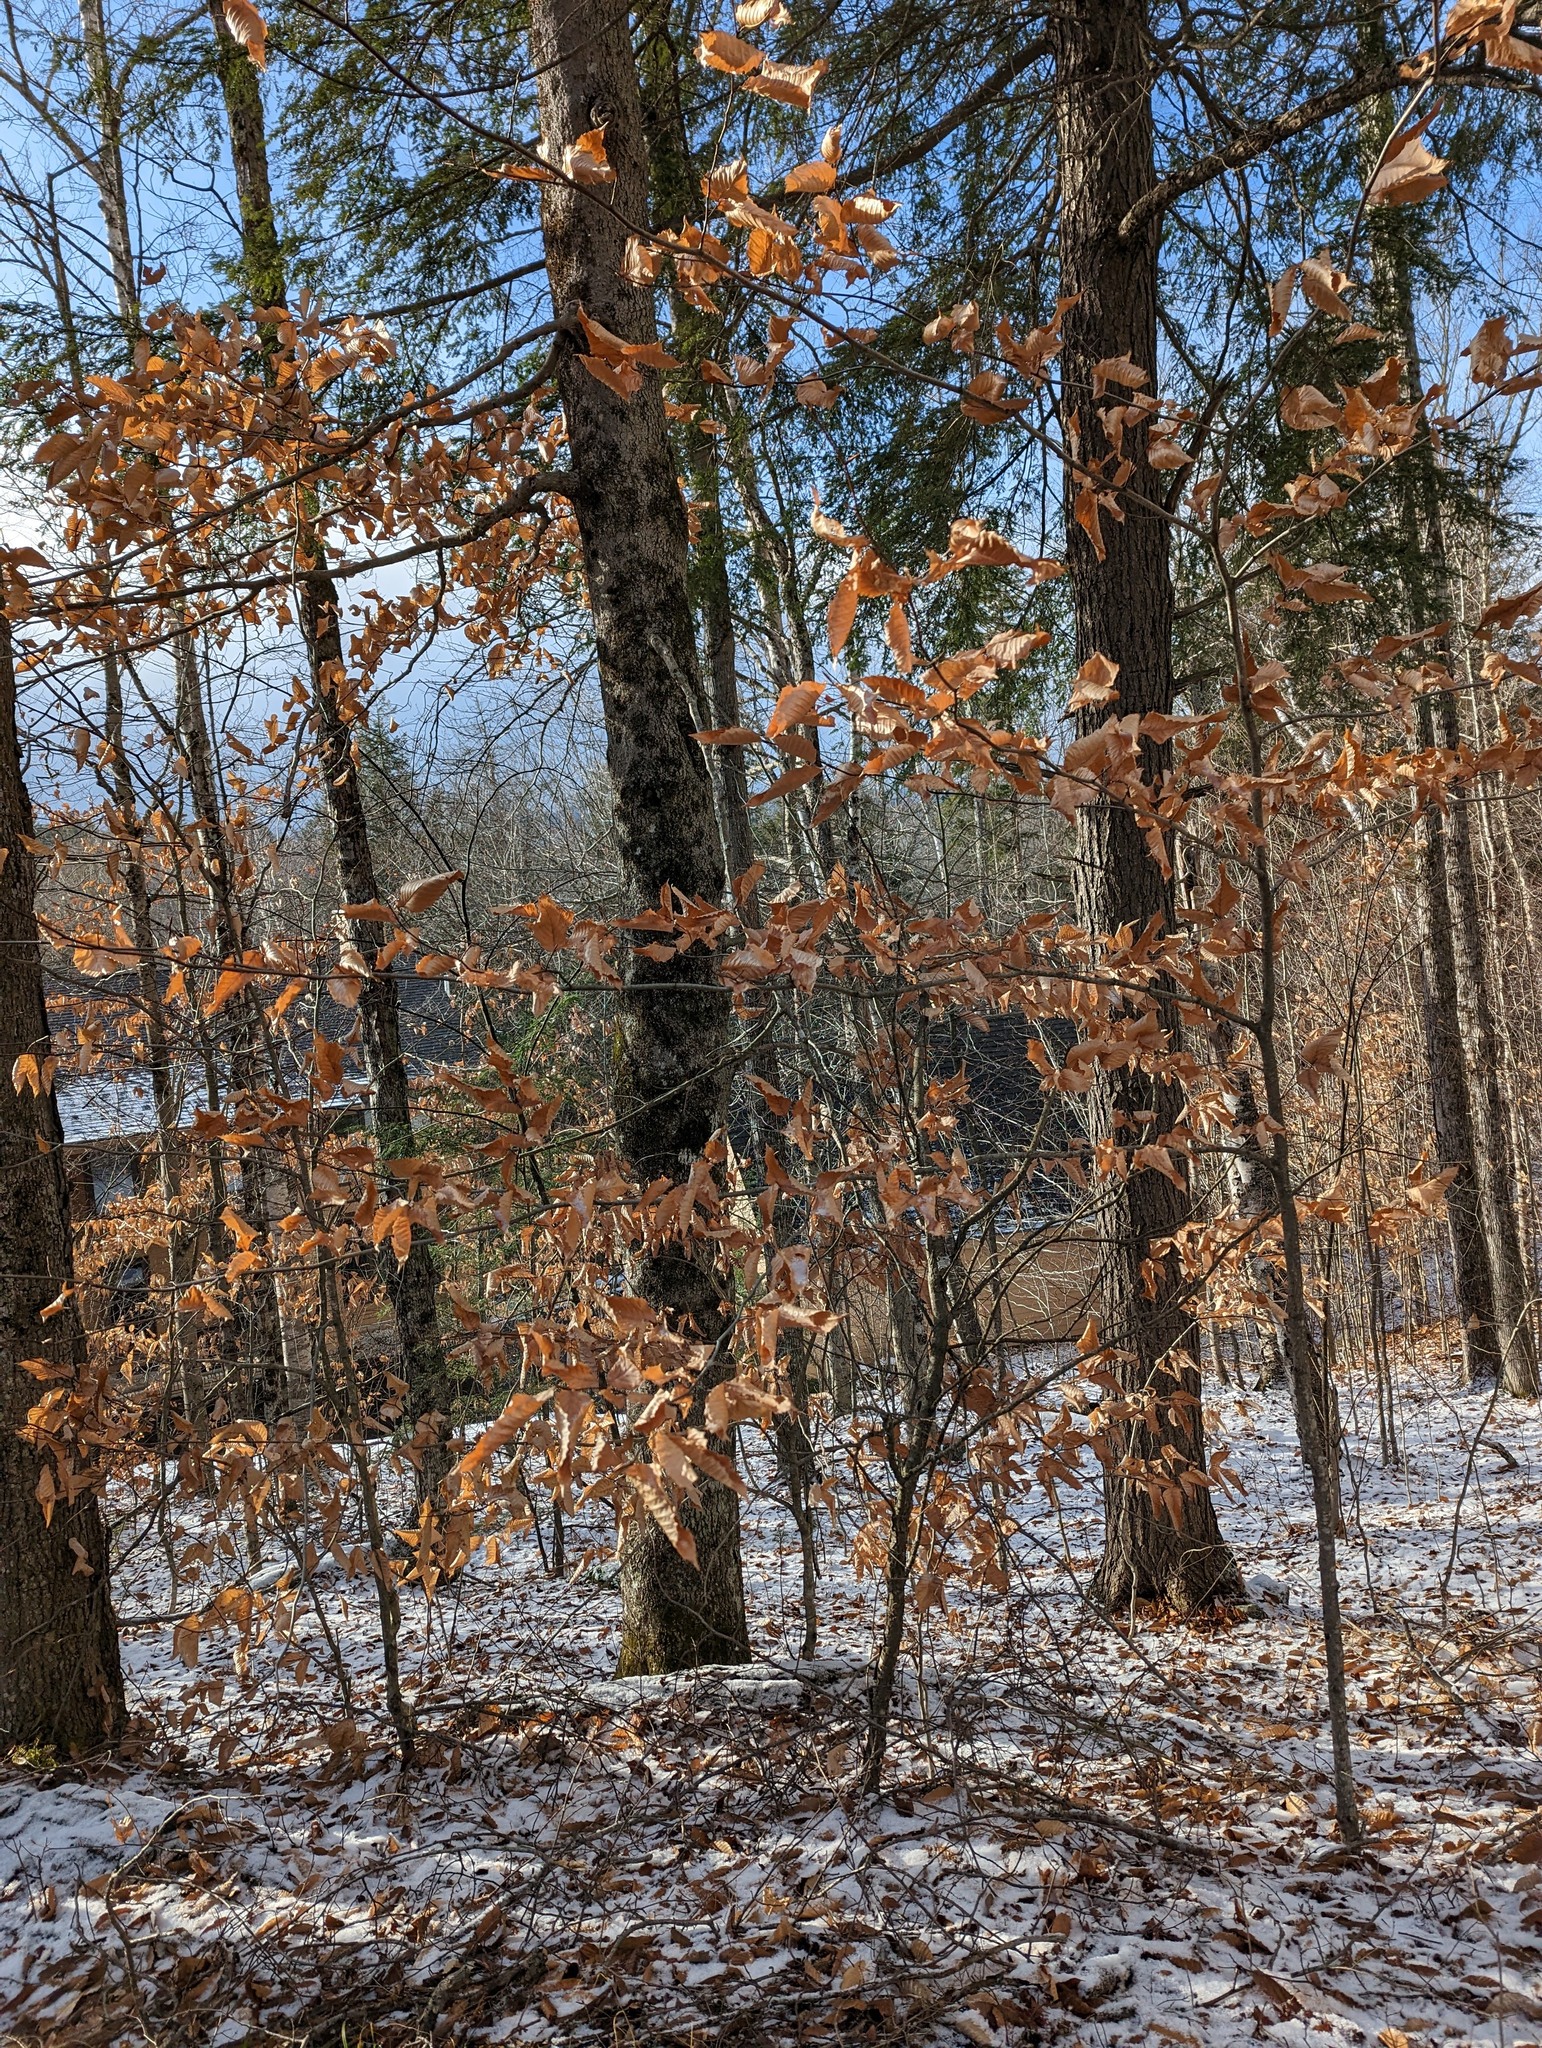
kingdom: Plantae
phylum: Tracheophyta
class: Magnoliopsida
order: Fagales
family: Fagaceae
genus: Fagus
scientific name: Fagus grandifolia
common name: American beech
